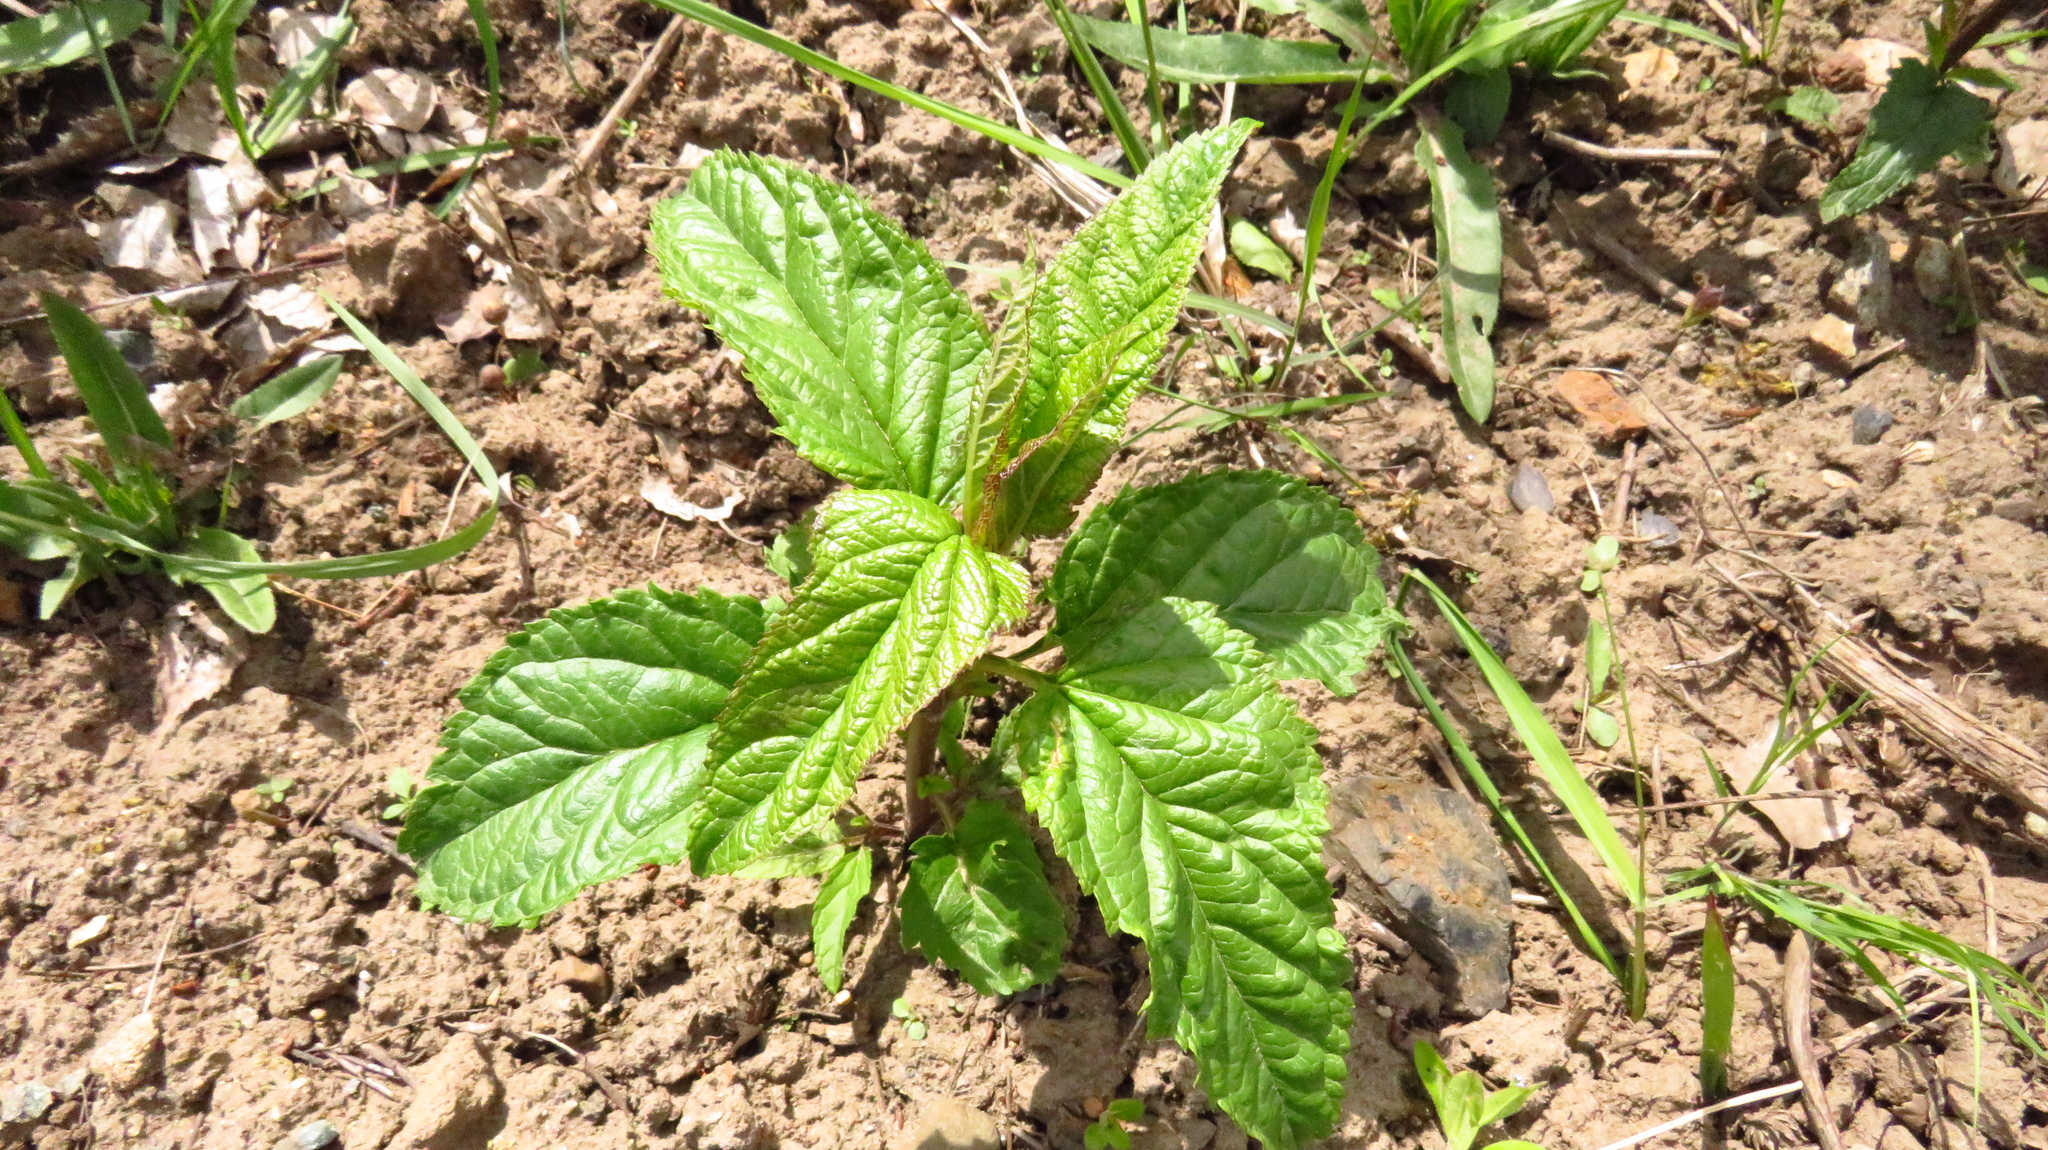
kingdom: Plantae
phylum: Tracheophyta
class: Magnoliopsida
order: Lamiales
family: Scrophulariaceae
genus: Scrophularia
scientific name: Scrophularia nodosa
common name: Common figwort
